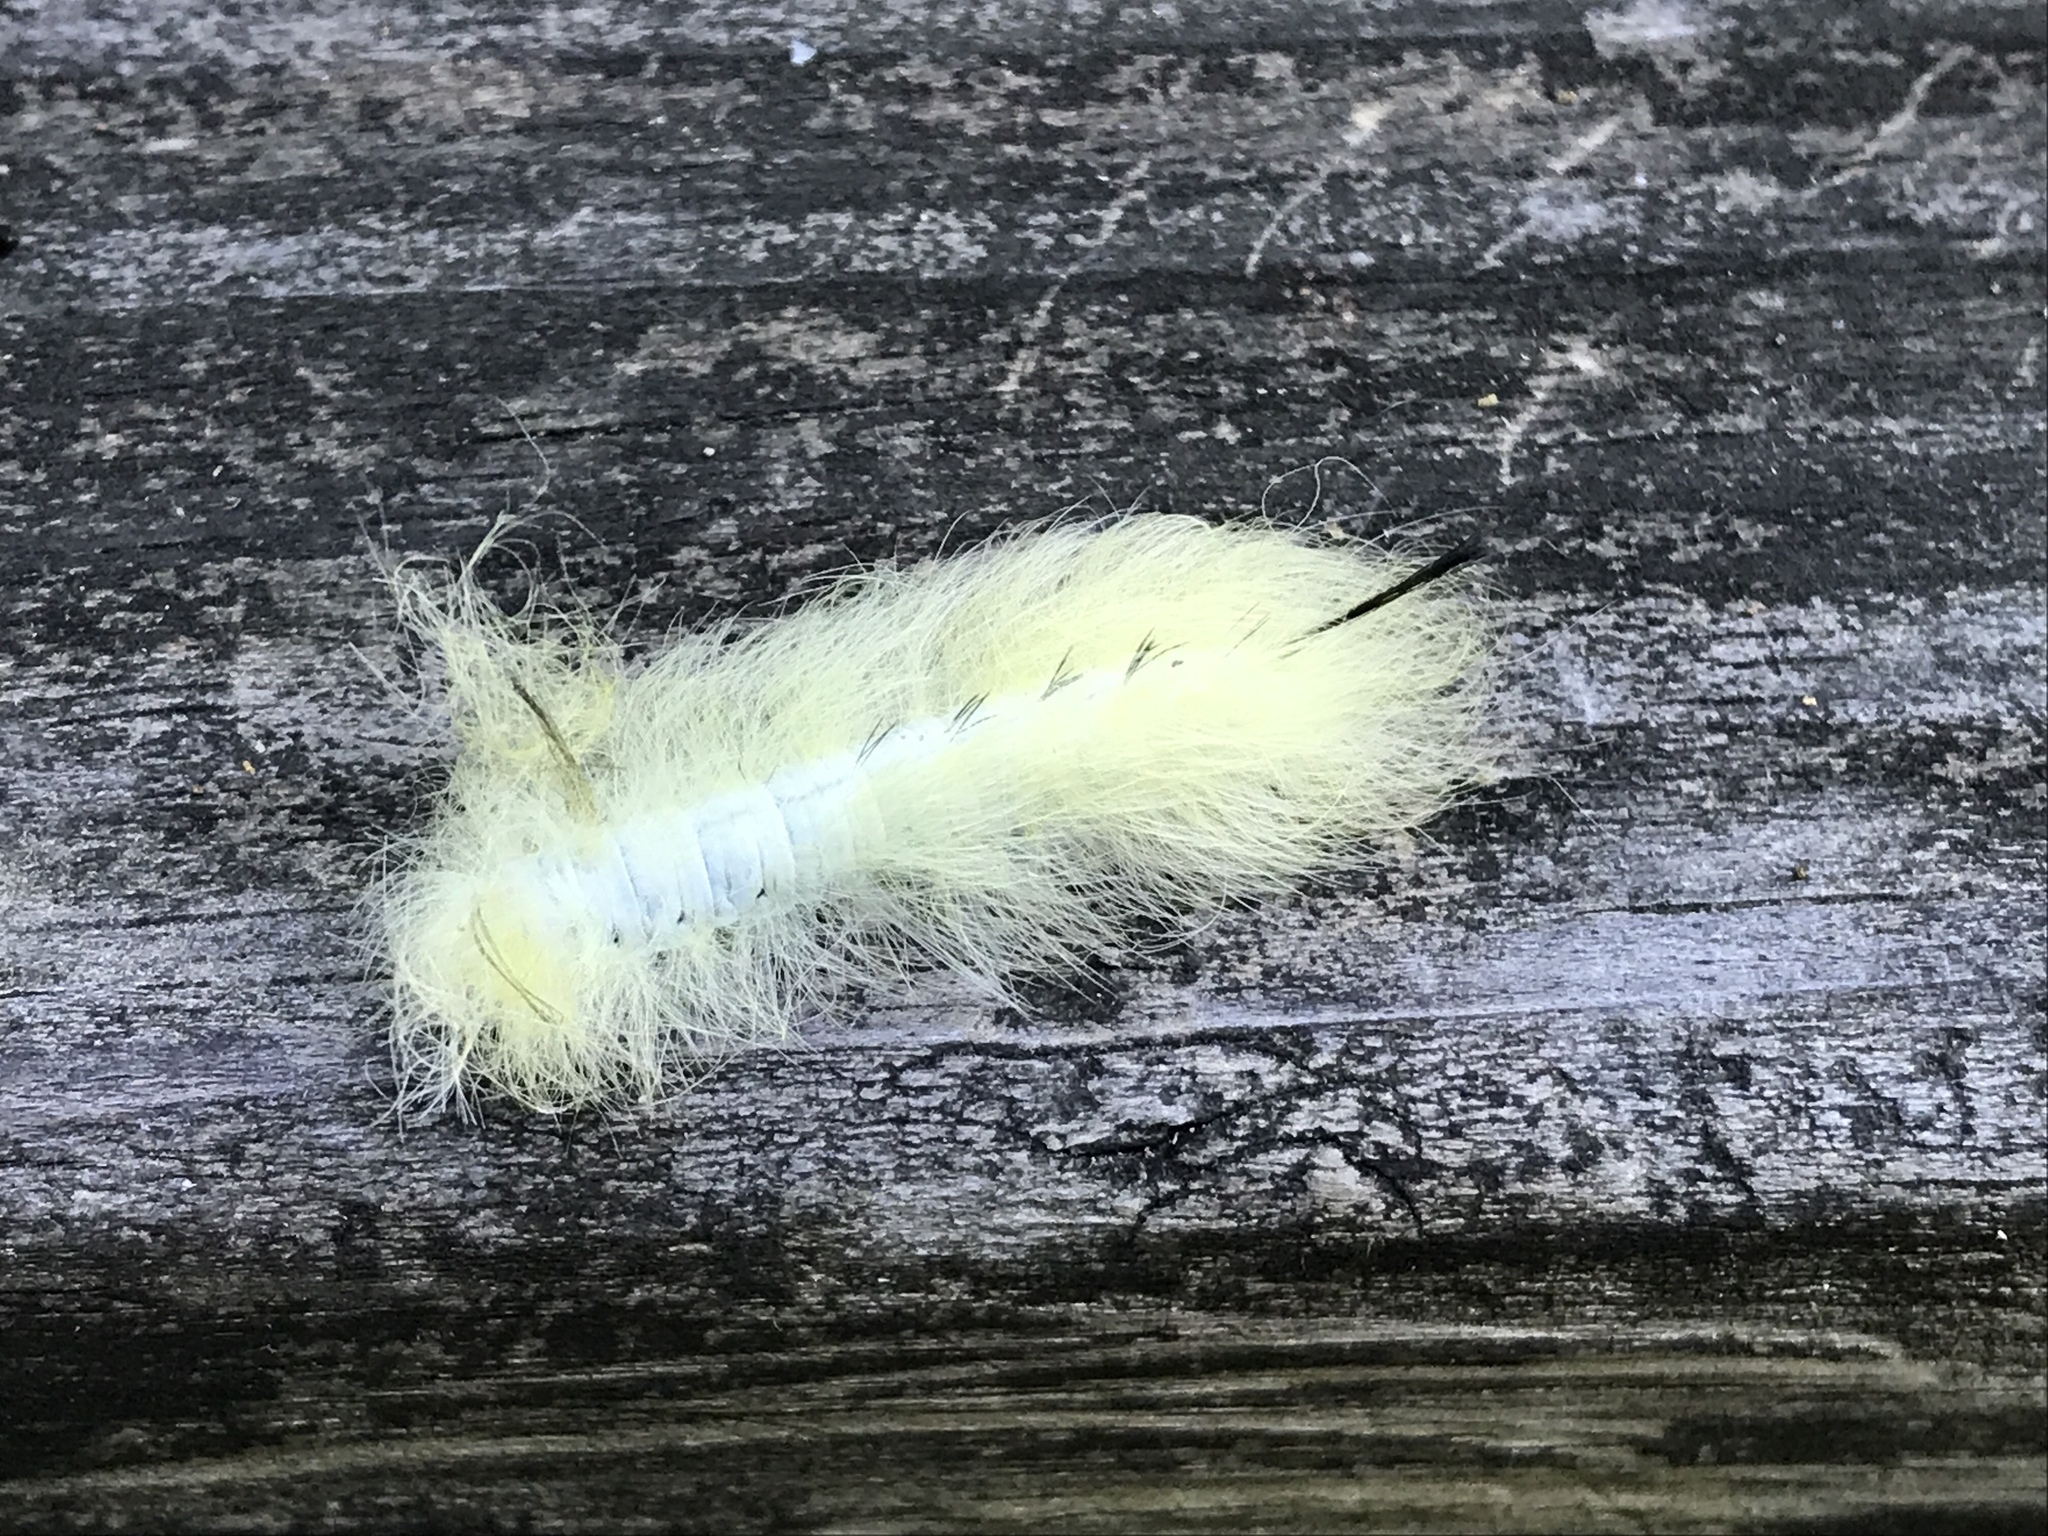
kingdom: Animalia
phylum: Arthropoda
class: Insecta
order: Lepidoptera
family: Apatelodidae
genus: Hygrochroa
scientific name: Hygrochroa Apatelodes torrefacta
